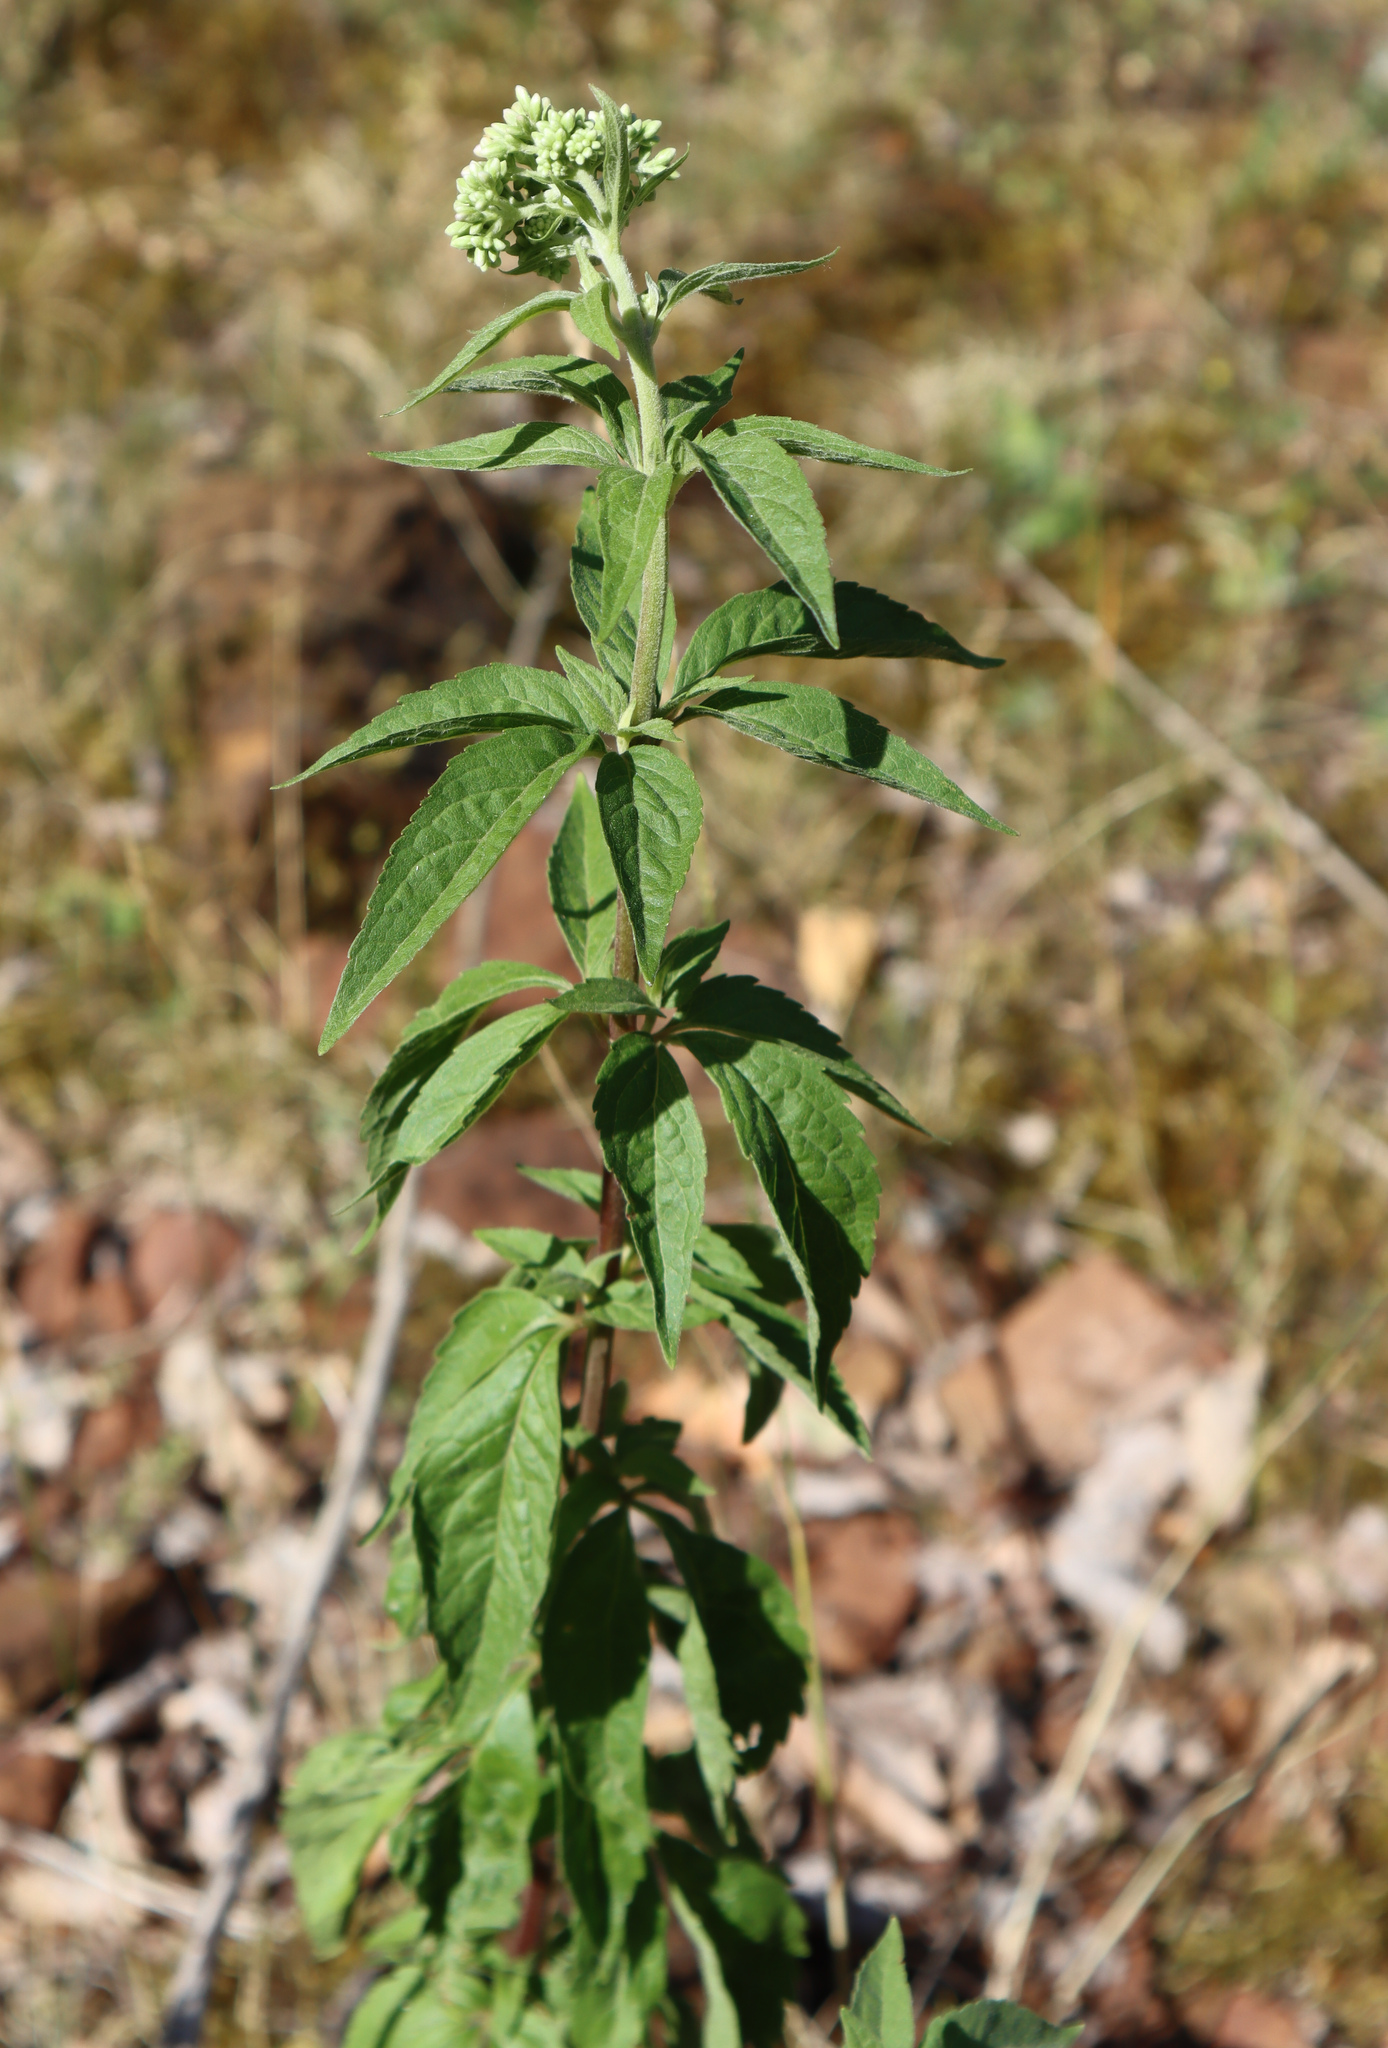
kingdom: Plantae
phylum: Tracheophyta
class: Magnoliopsida
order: Asterales
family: Asteraceae
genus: Eupatorium
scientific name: Eupatorium cannabinum
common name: Hemp-agrimony
